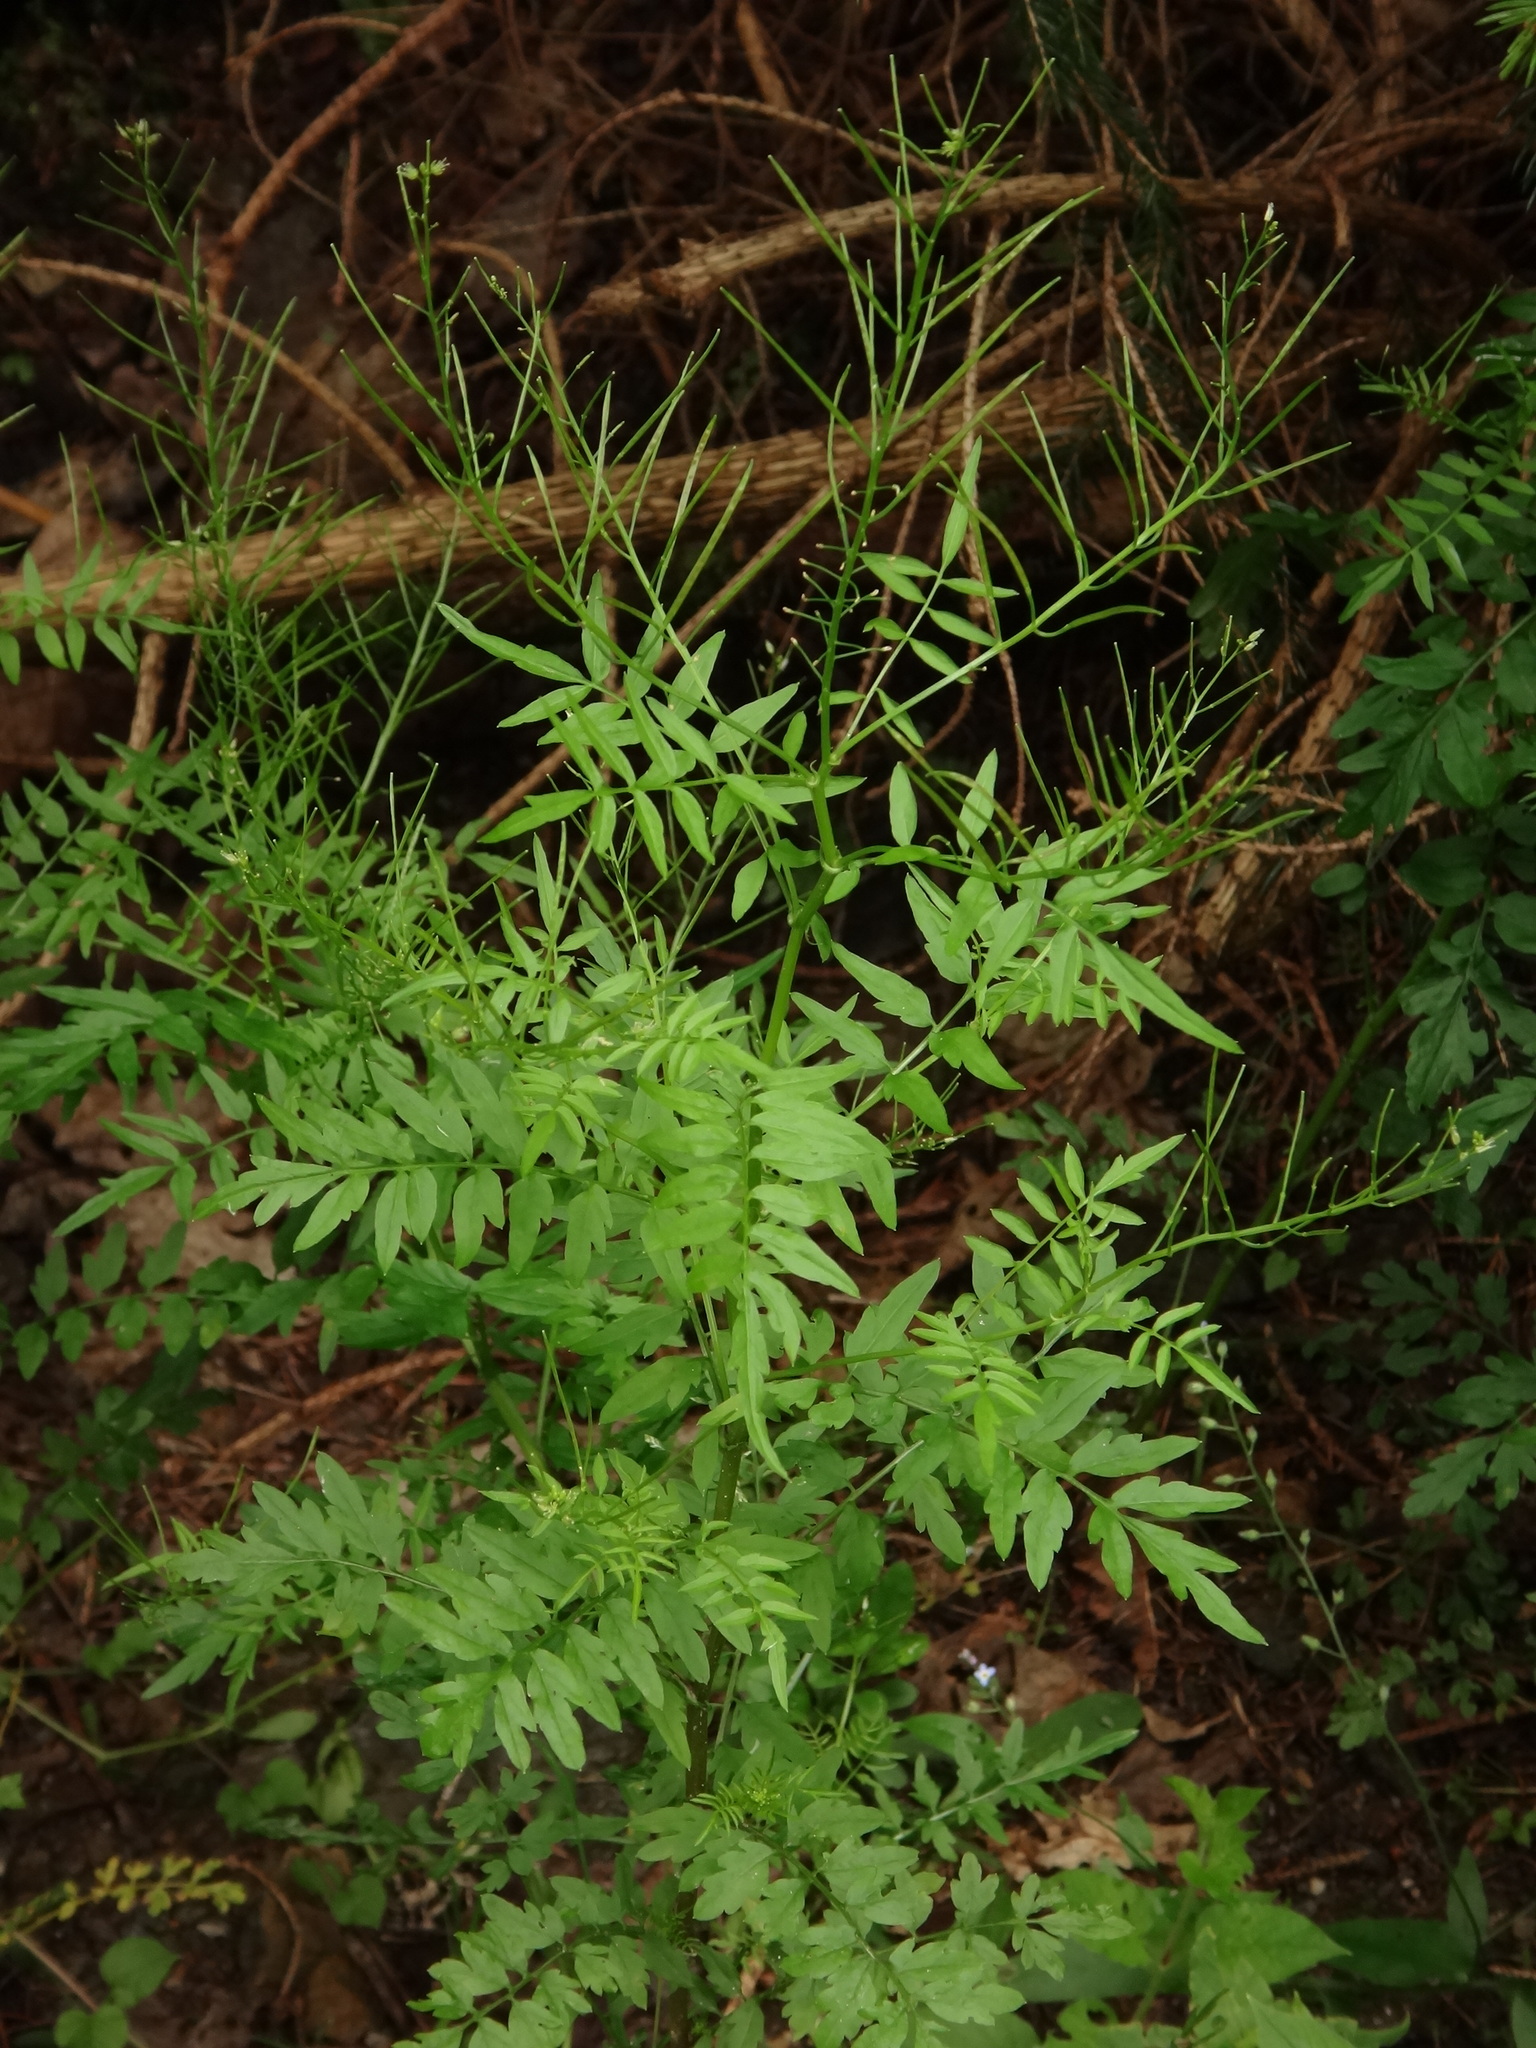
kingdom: Plantae
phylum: Tracheophyta
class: Magnoliopsida
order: Brassicales
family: Brassicaceae
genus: Cardamine
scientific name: Cardamine impatiens
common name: Narrow-leaved bitter-cress
